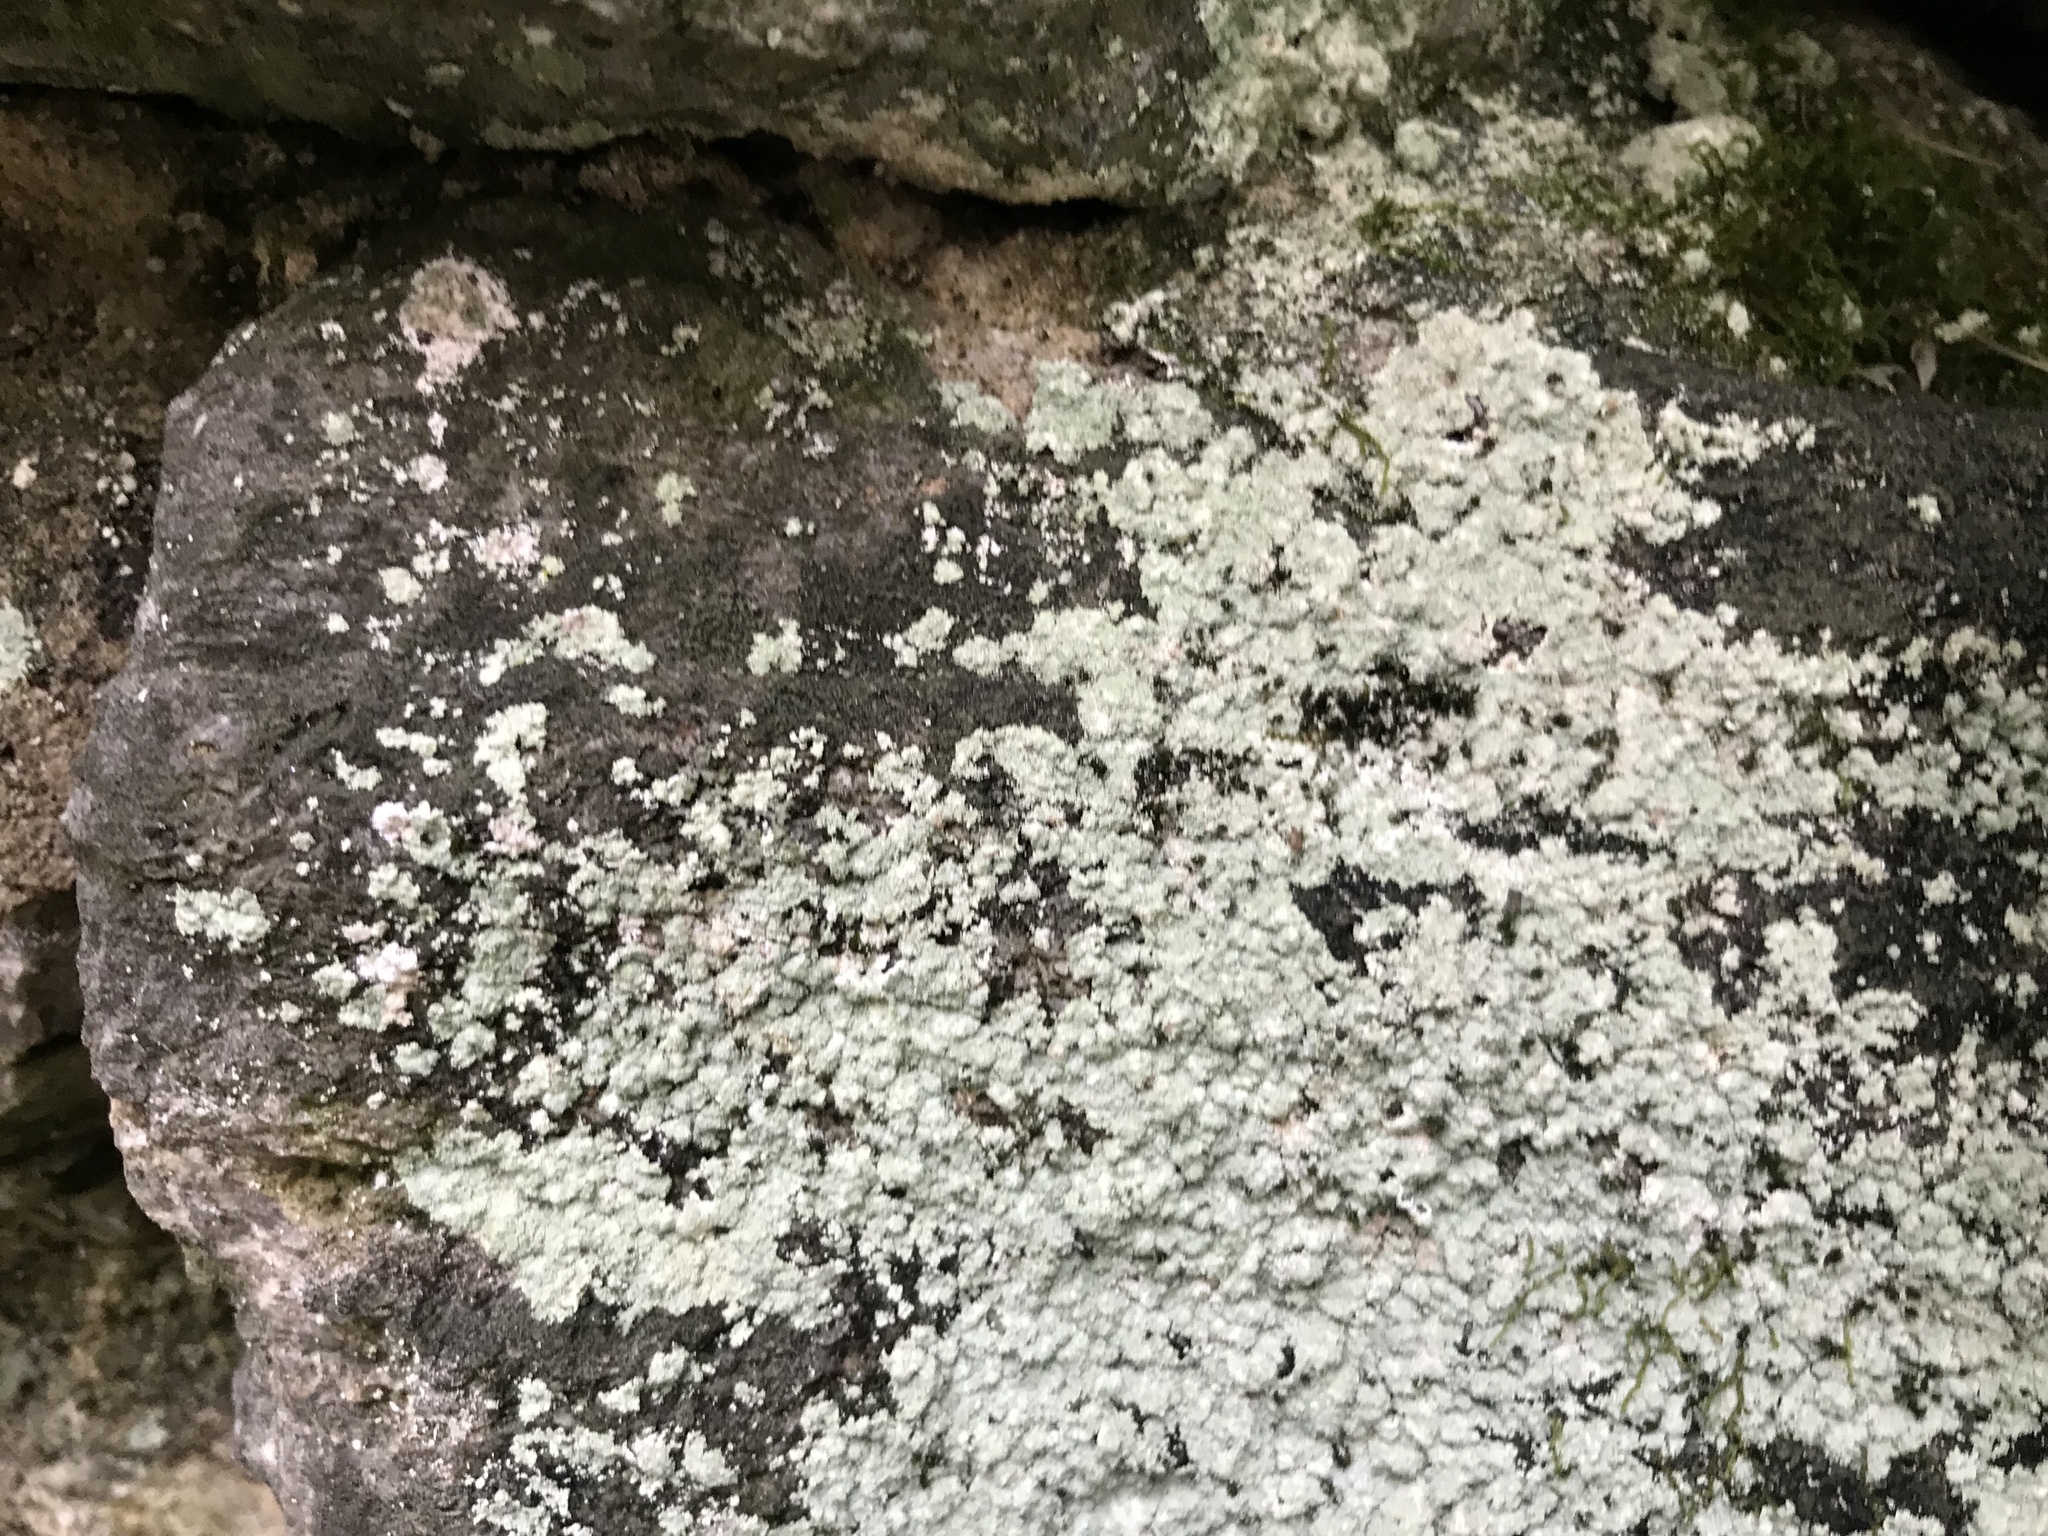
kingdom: Fungi
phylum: Ascomycota
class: Lecanoromycetes
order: Lecanorales
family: Stereocaulaceae
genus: Lepraria
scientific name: Lepraria lobificans
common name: Fluffy dust lichen
